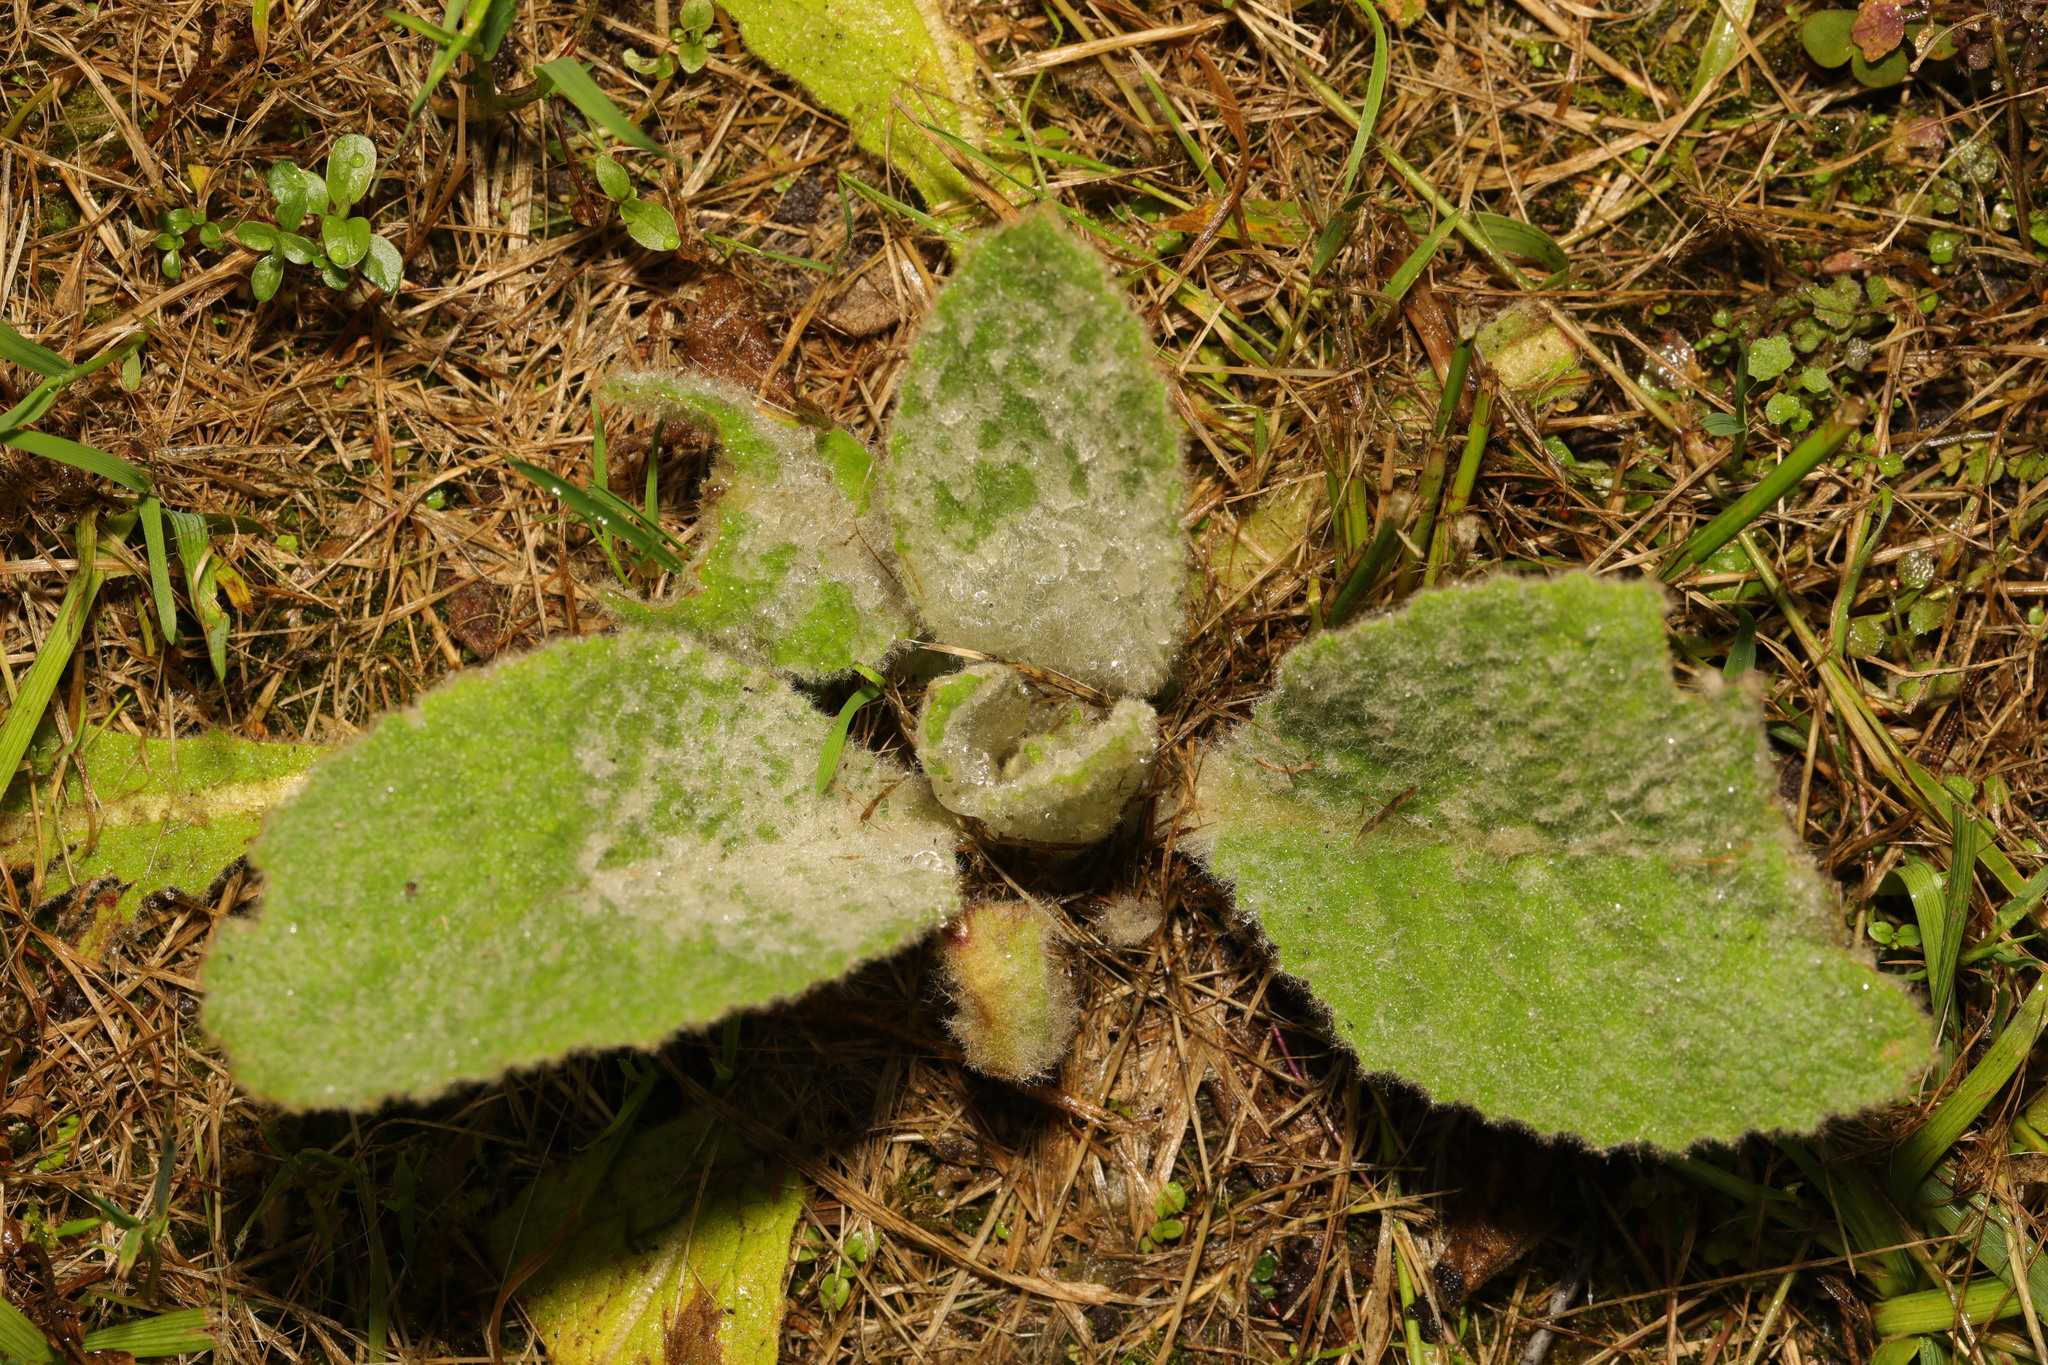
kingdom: Plantae
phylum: Tracheophyta
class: Magnoliopsida
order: Lamiales
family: Scrophulariaceae
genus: Verbascum
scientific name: Verbascum thapsus
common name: Common mullein
